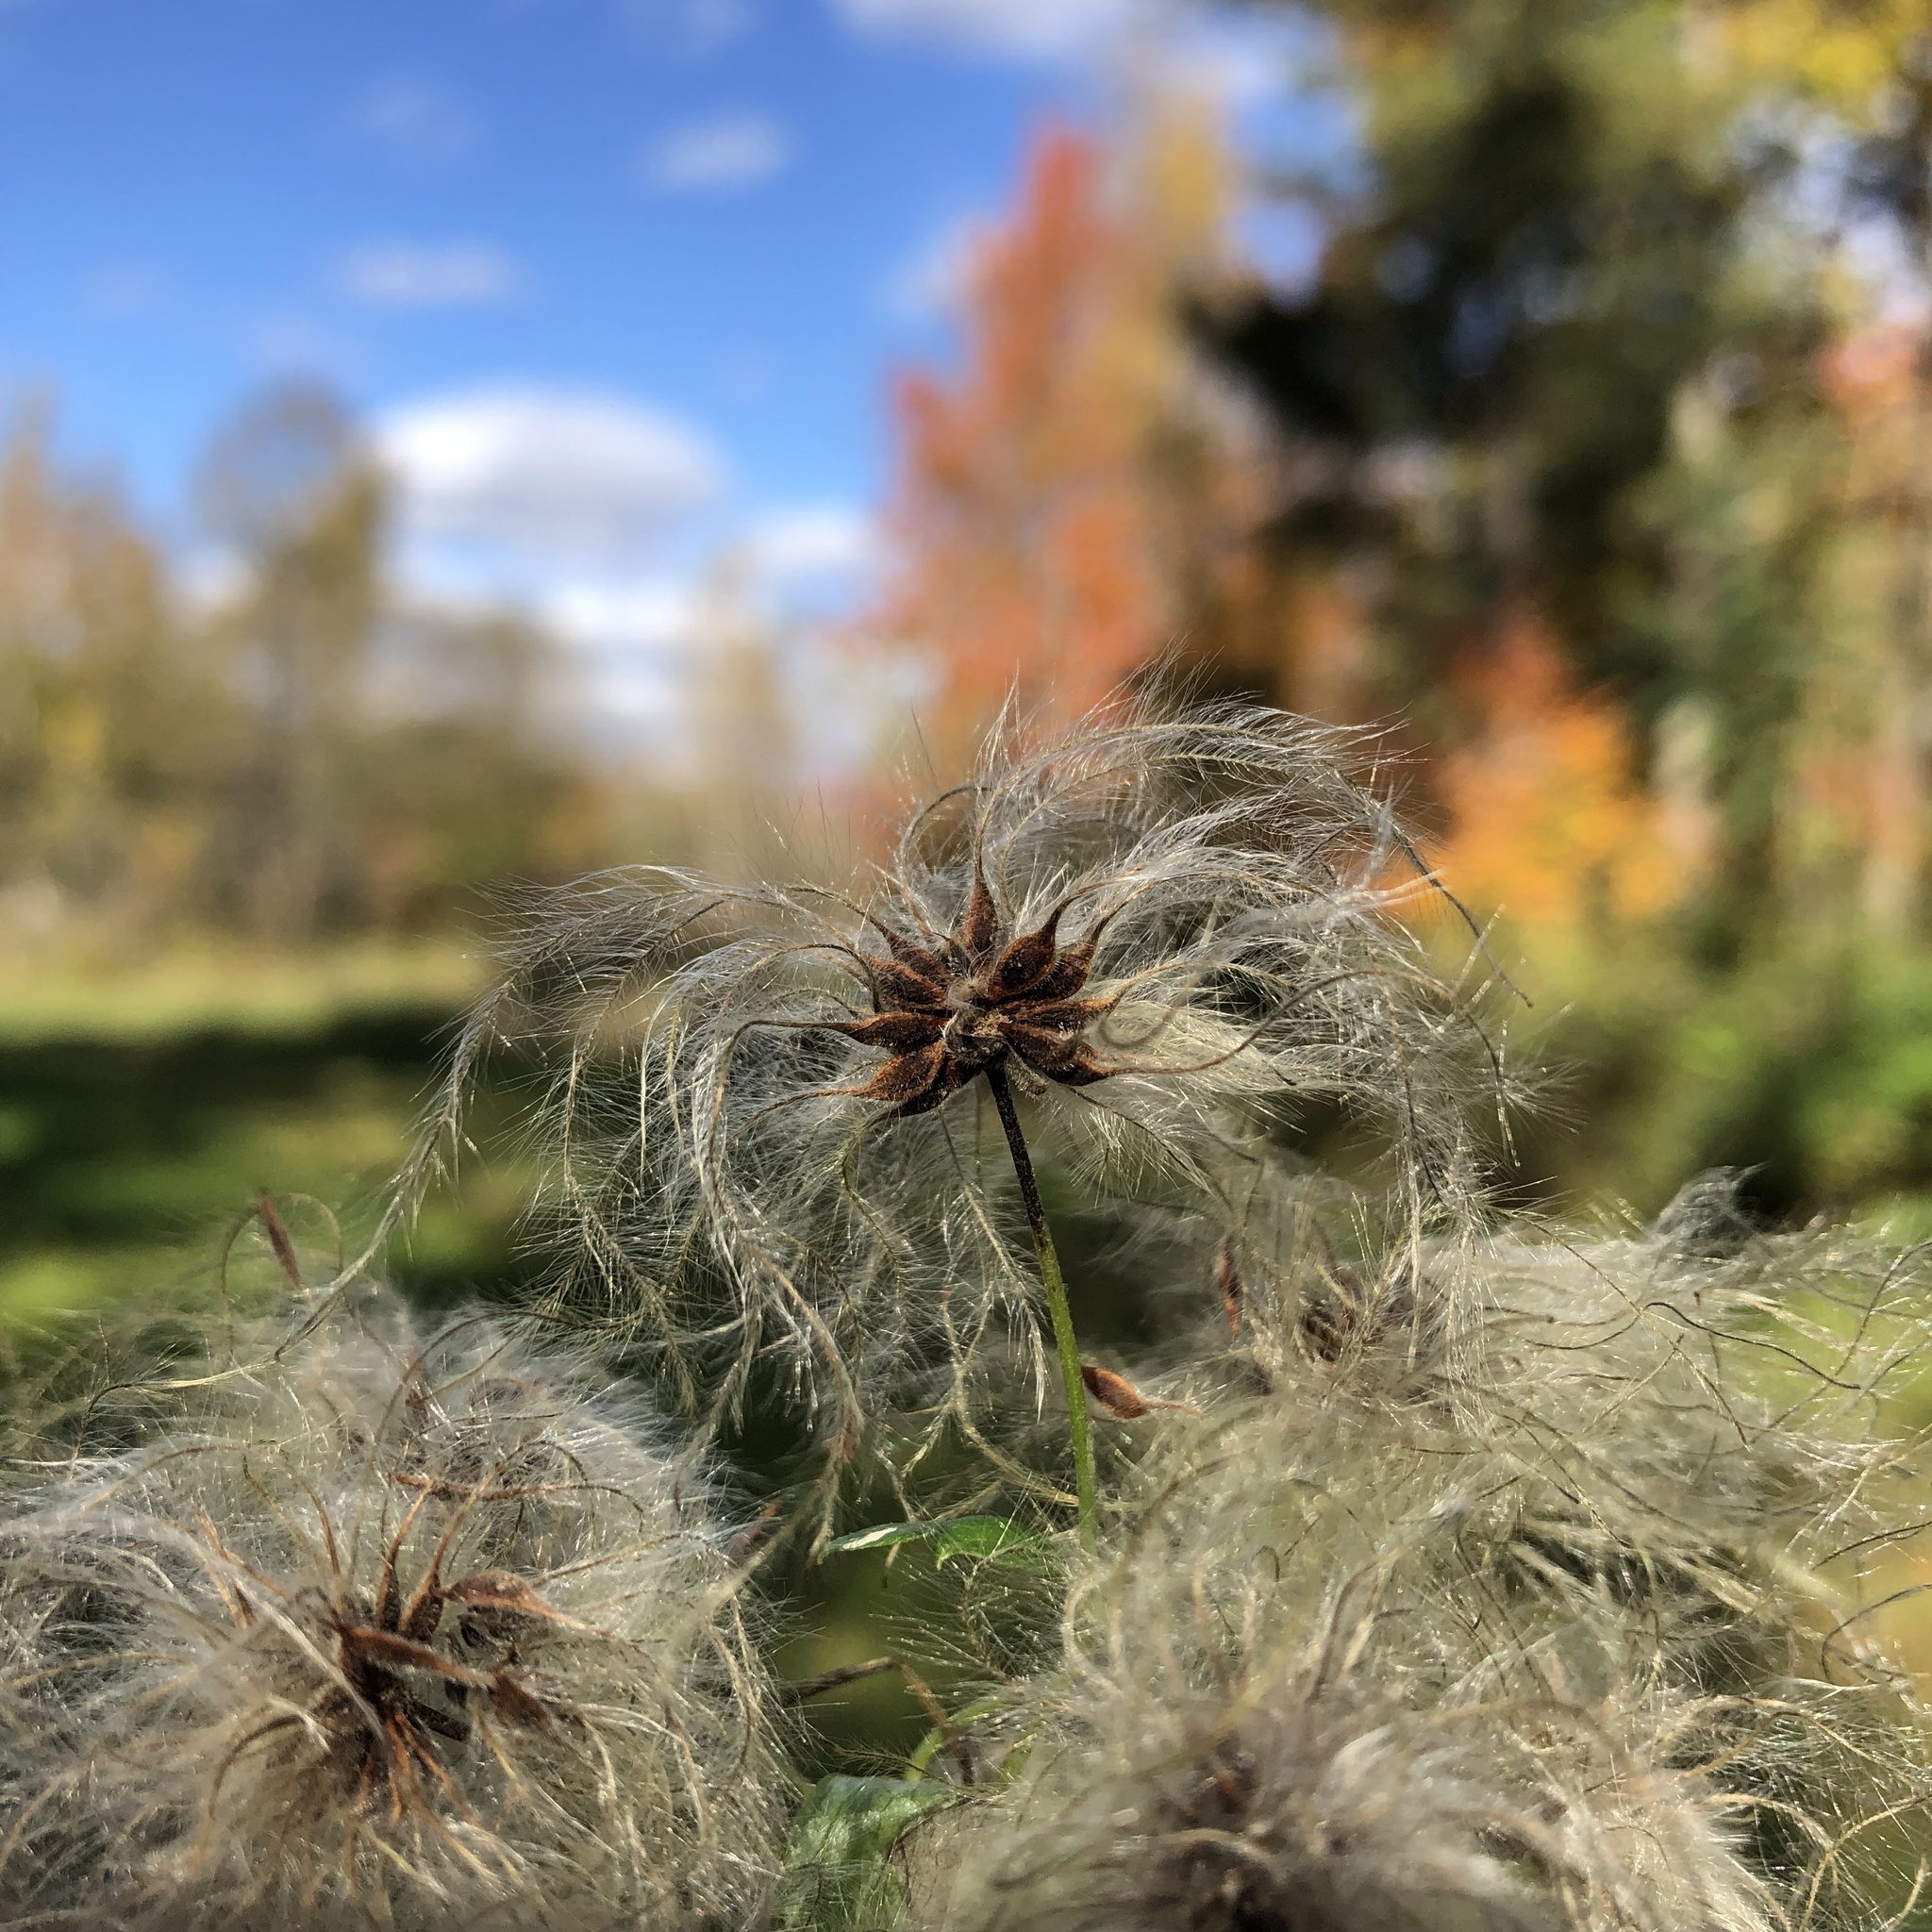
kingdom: Plantae
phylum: Tracheophyta
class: Magnoliopsida
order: Ranunculales
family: Ranunculaceae
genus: Clematis
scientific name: Clematis virginiana
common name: Virgin's-bower
